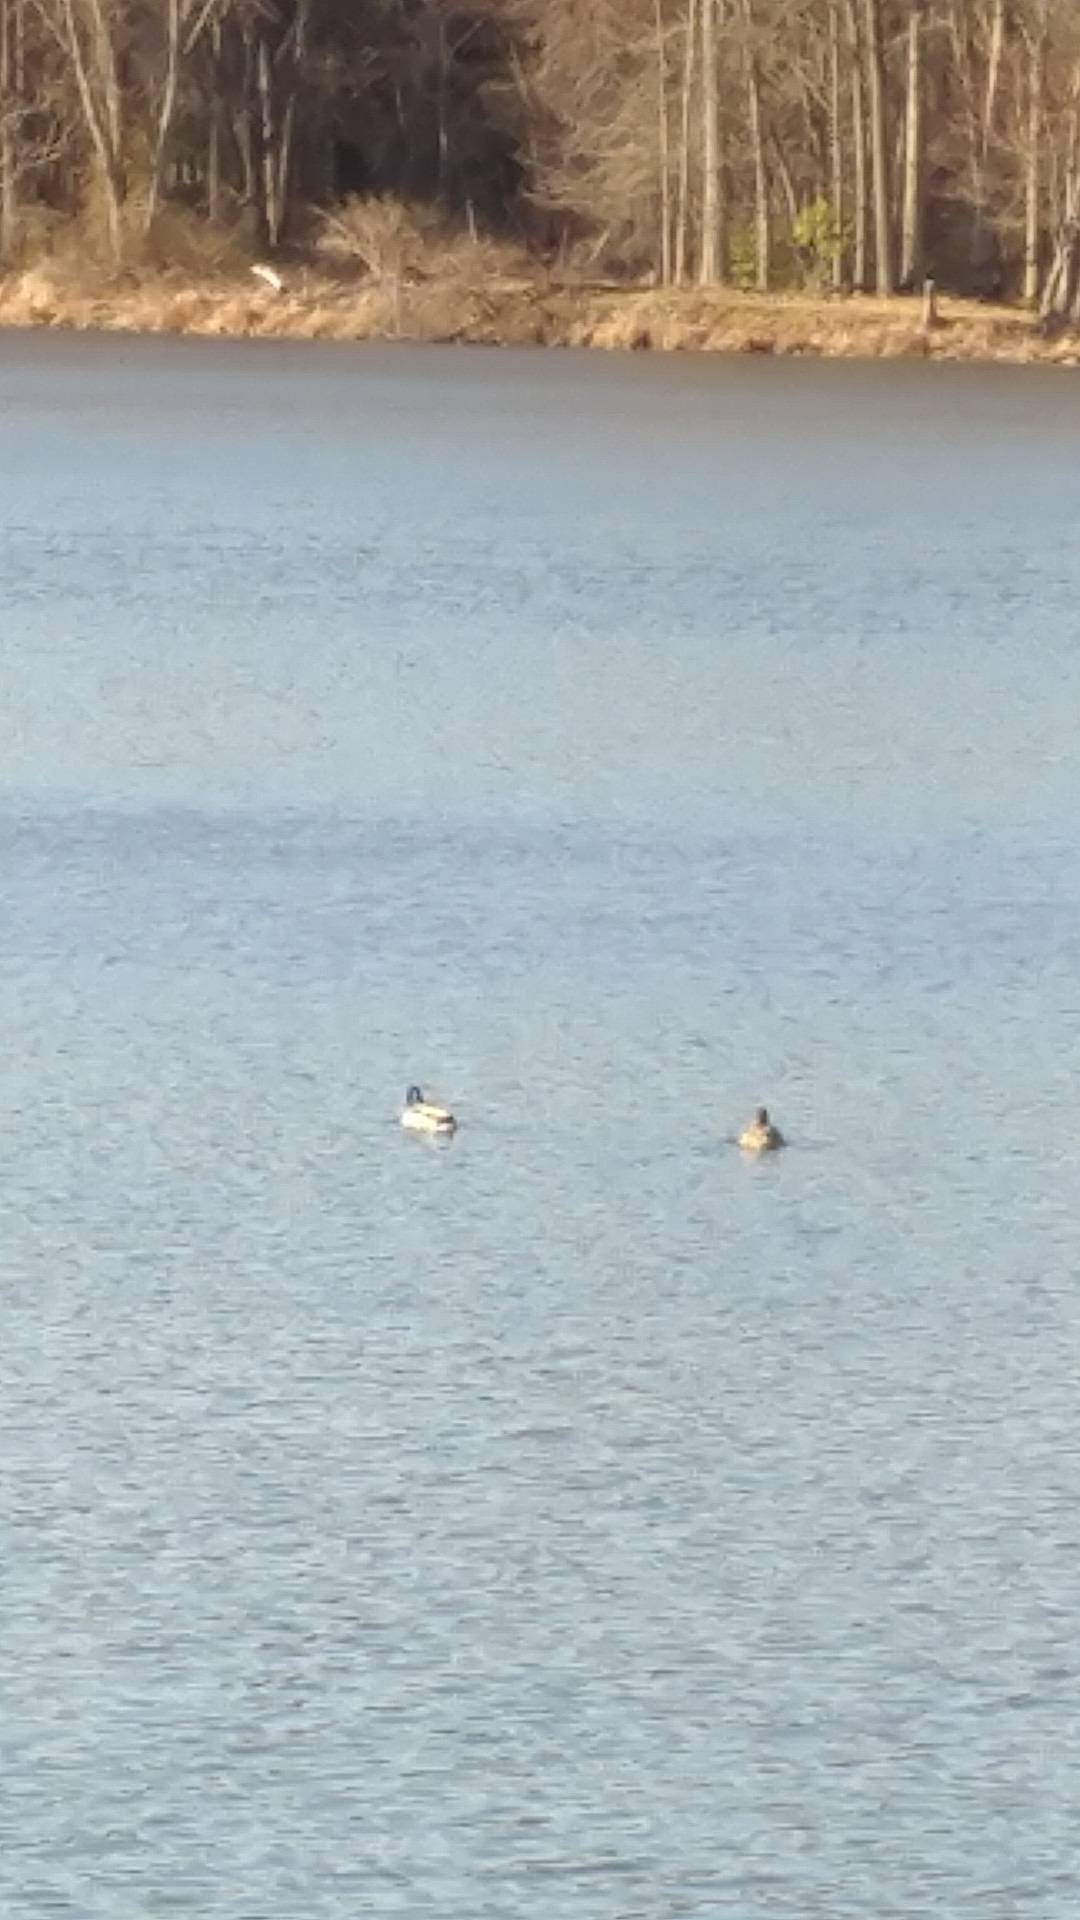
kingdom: Animalia
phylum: Chordata
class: Aves
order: Anseriformes
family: Anatidae
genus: Anas
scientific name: Anas platyrhynchos
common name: Mallard
